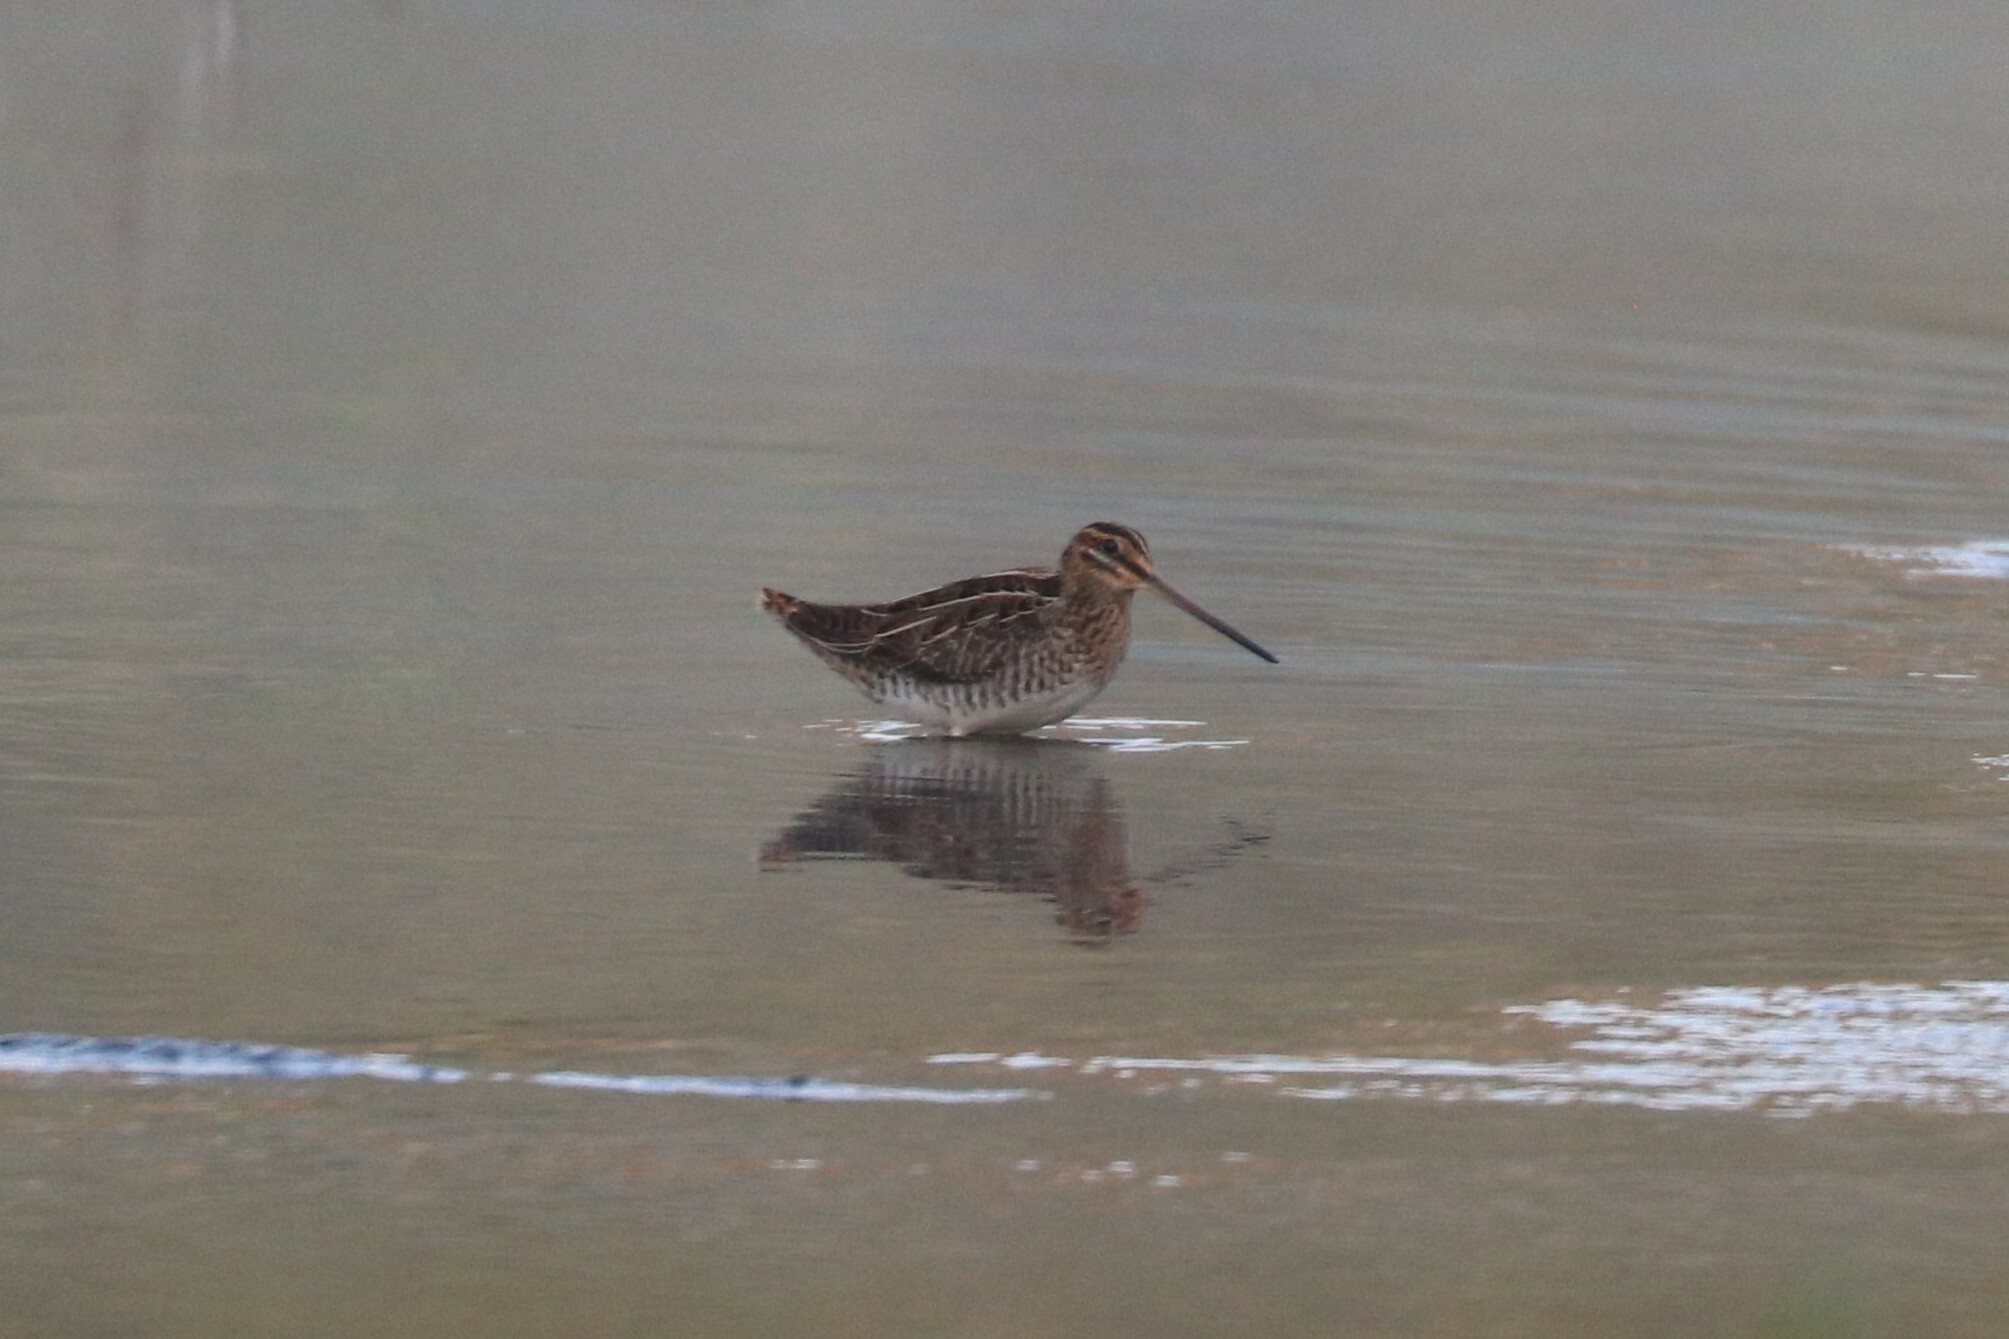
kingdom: Animalia
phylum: Chordata
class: Aves
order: Charadriiformes
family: Scolopacidae
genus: Gallinago
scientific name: Gallinago gallinago
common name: Common snipe
